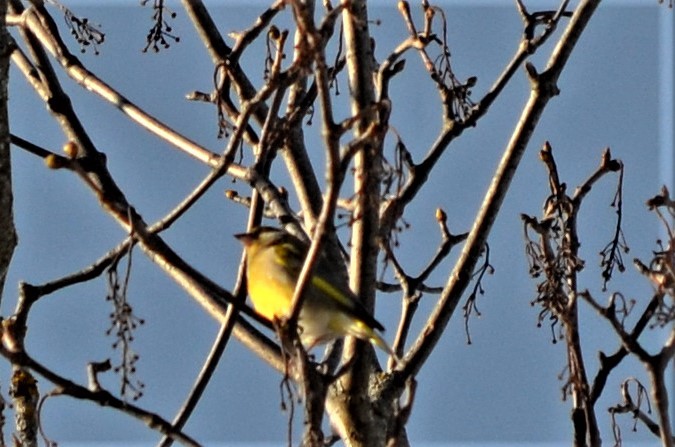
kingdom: Plantae
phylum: Tracheophyta
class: Liliopsida
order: Poales
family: Poaceae
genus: Chloris
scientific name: Chloris chloris
